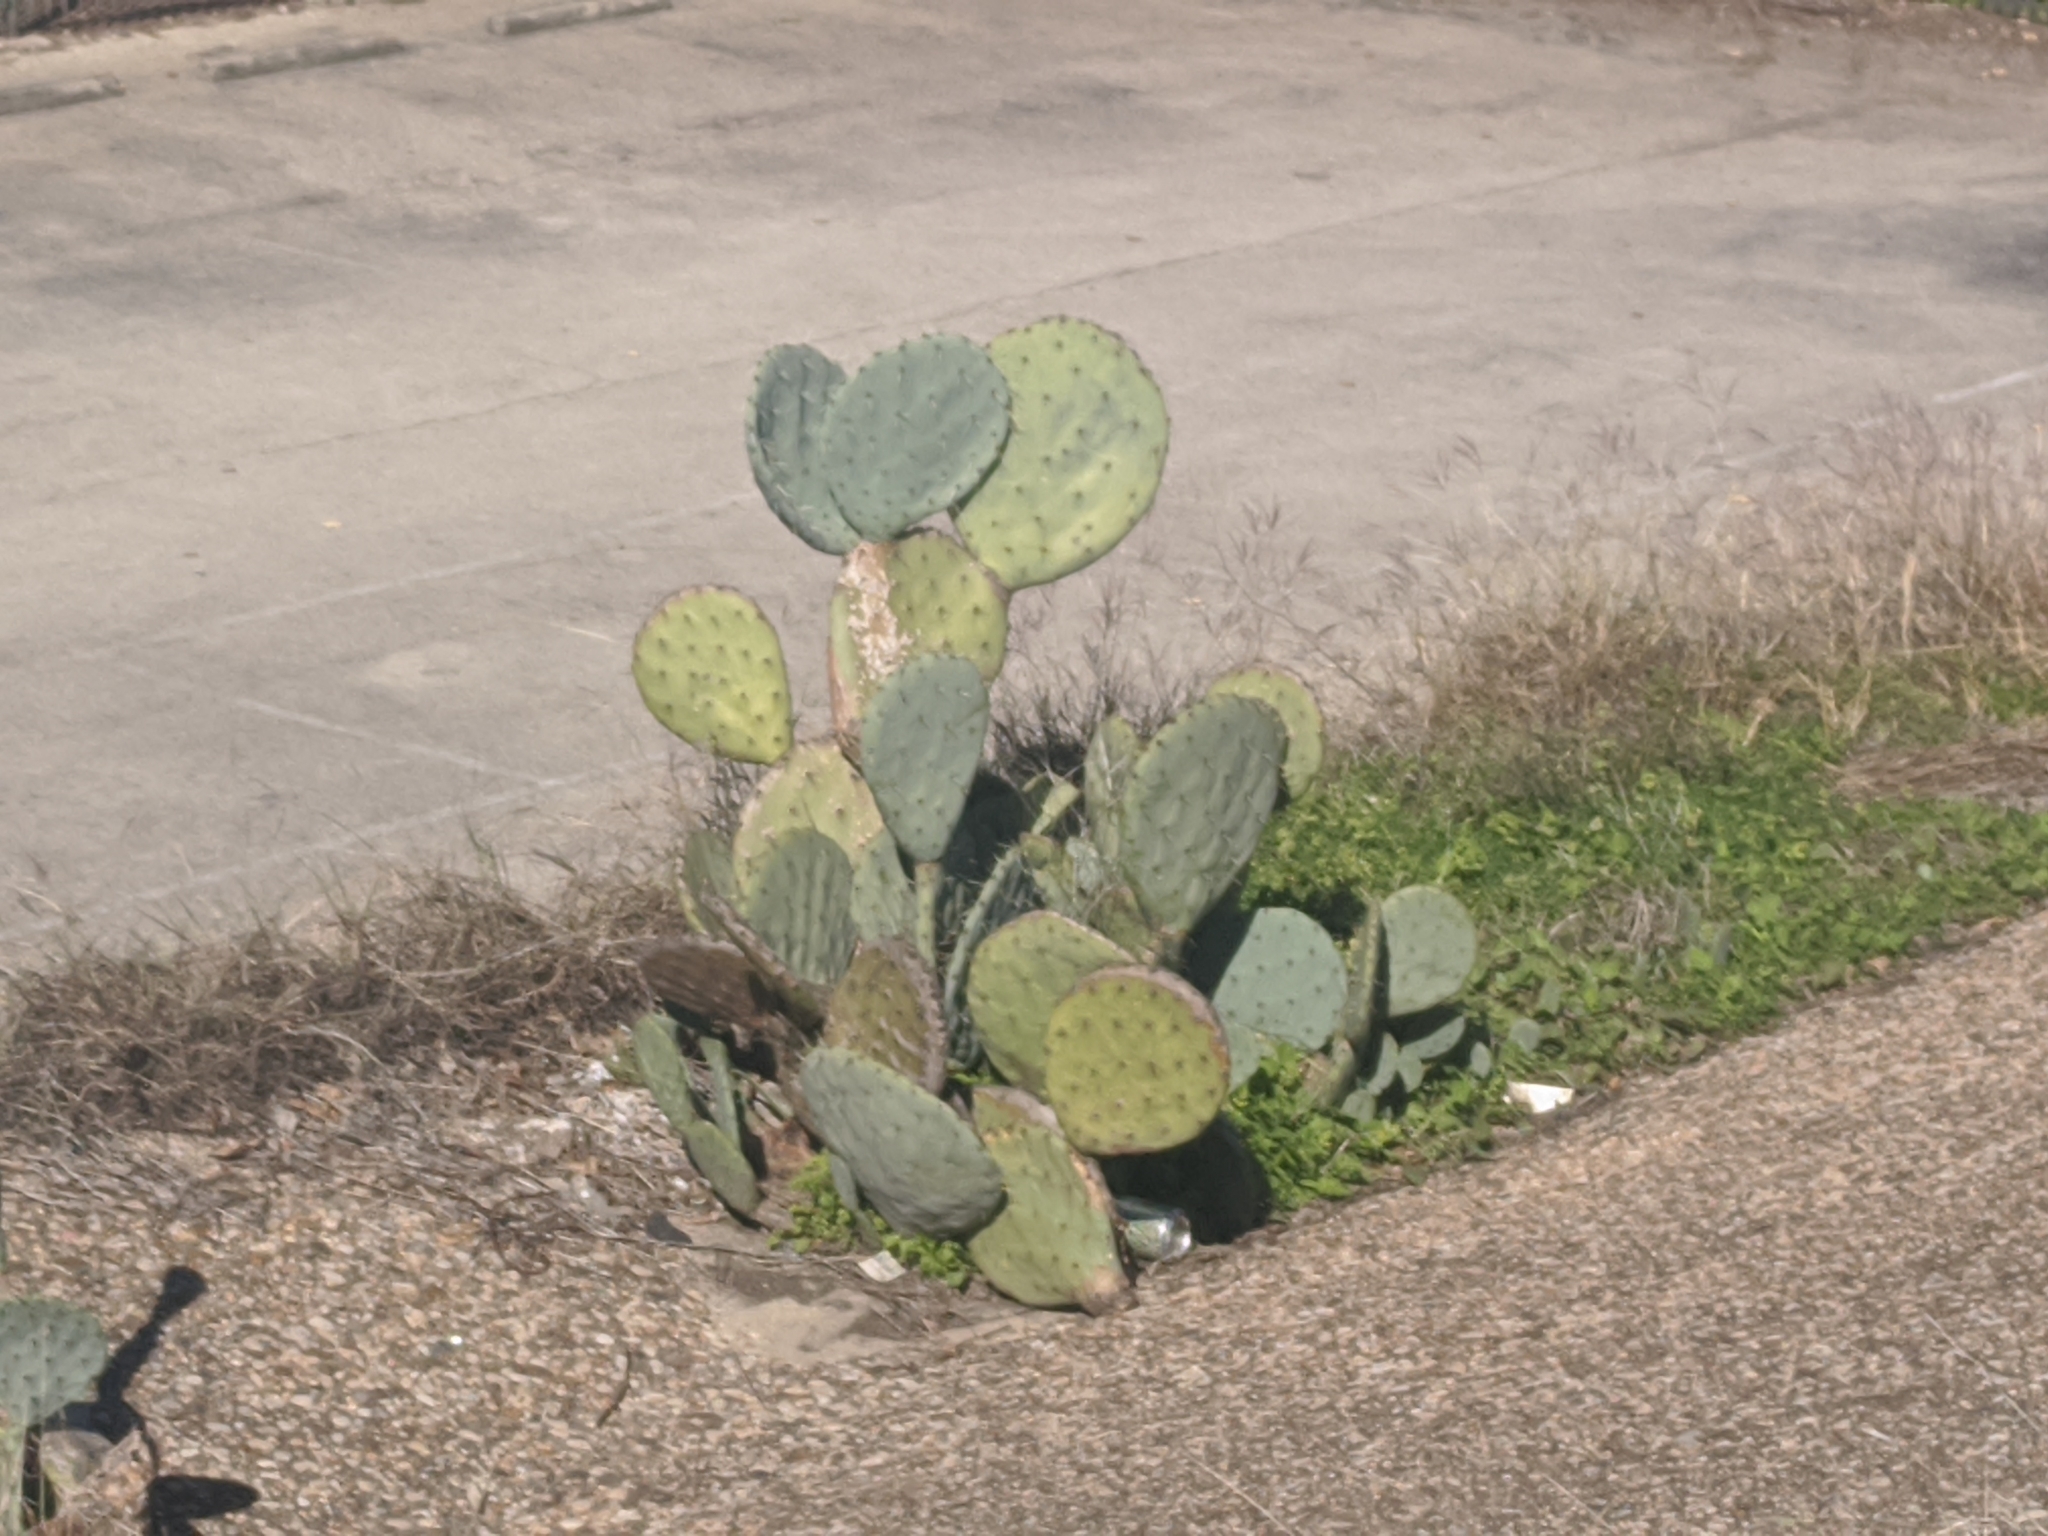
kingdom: Plantae
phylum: Tracheophyta
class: Magnoliopsida
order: Caryophyllales
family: Cactaceae
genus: Opuntia
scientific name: Opuntia engelmannii
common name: Cactus-apple
